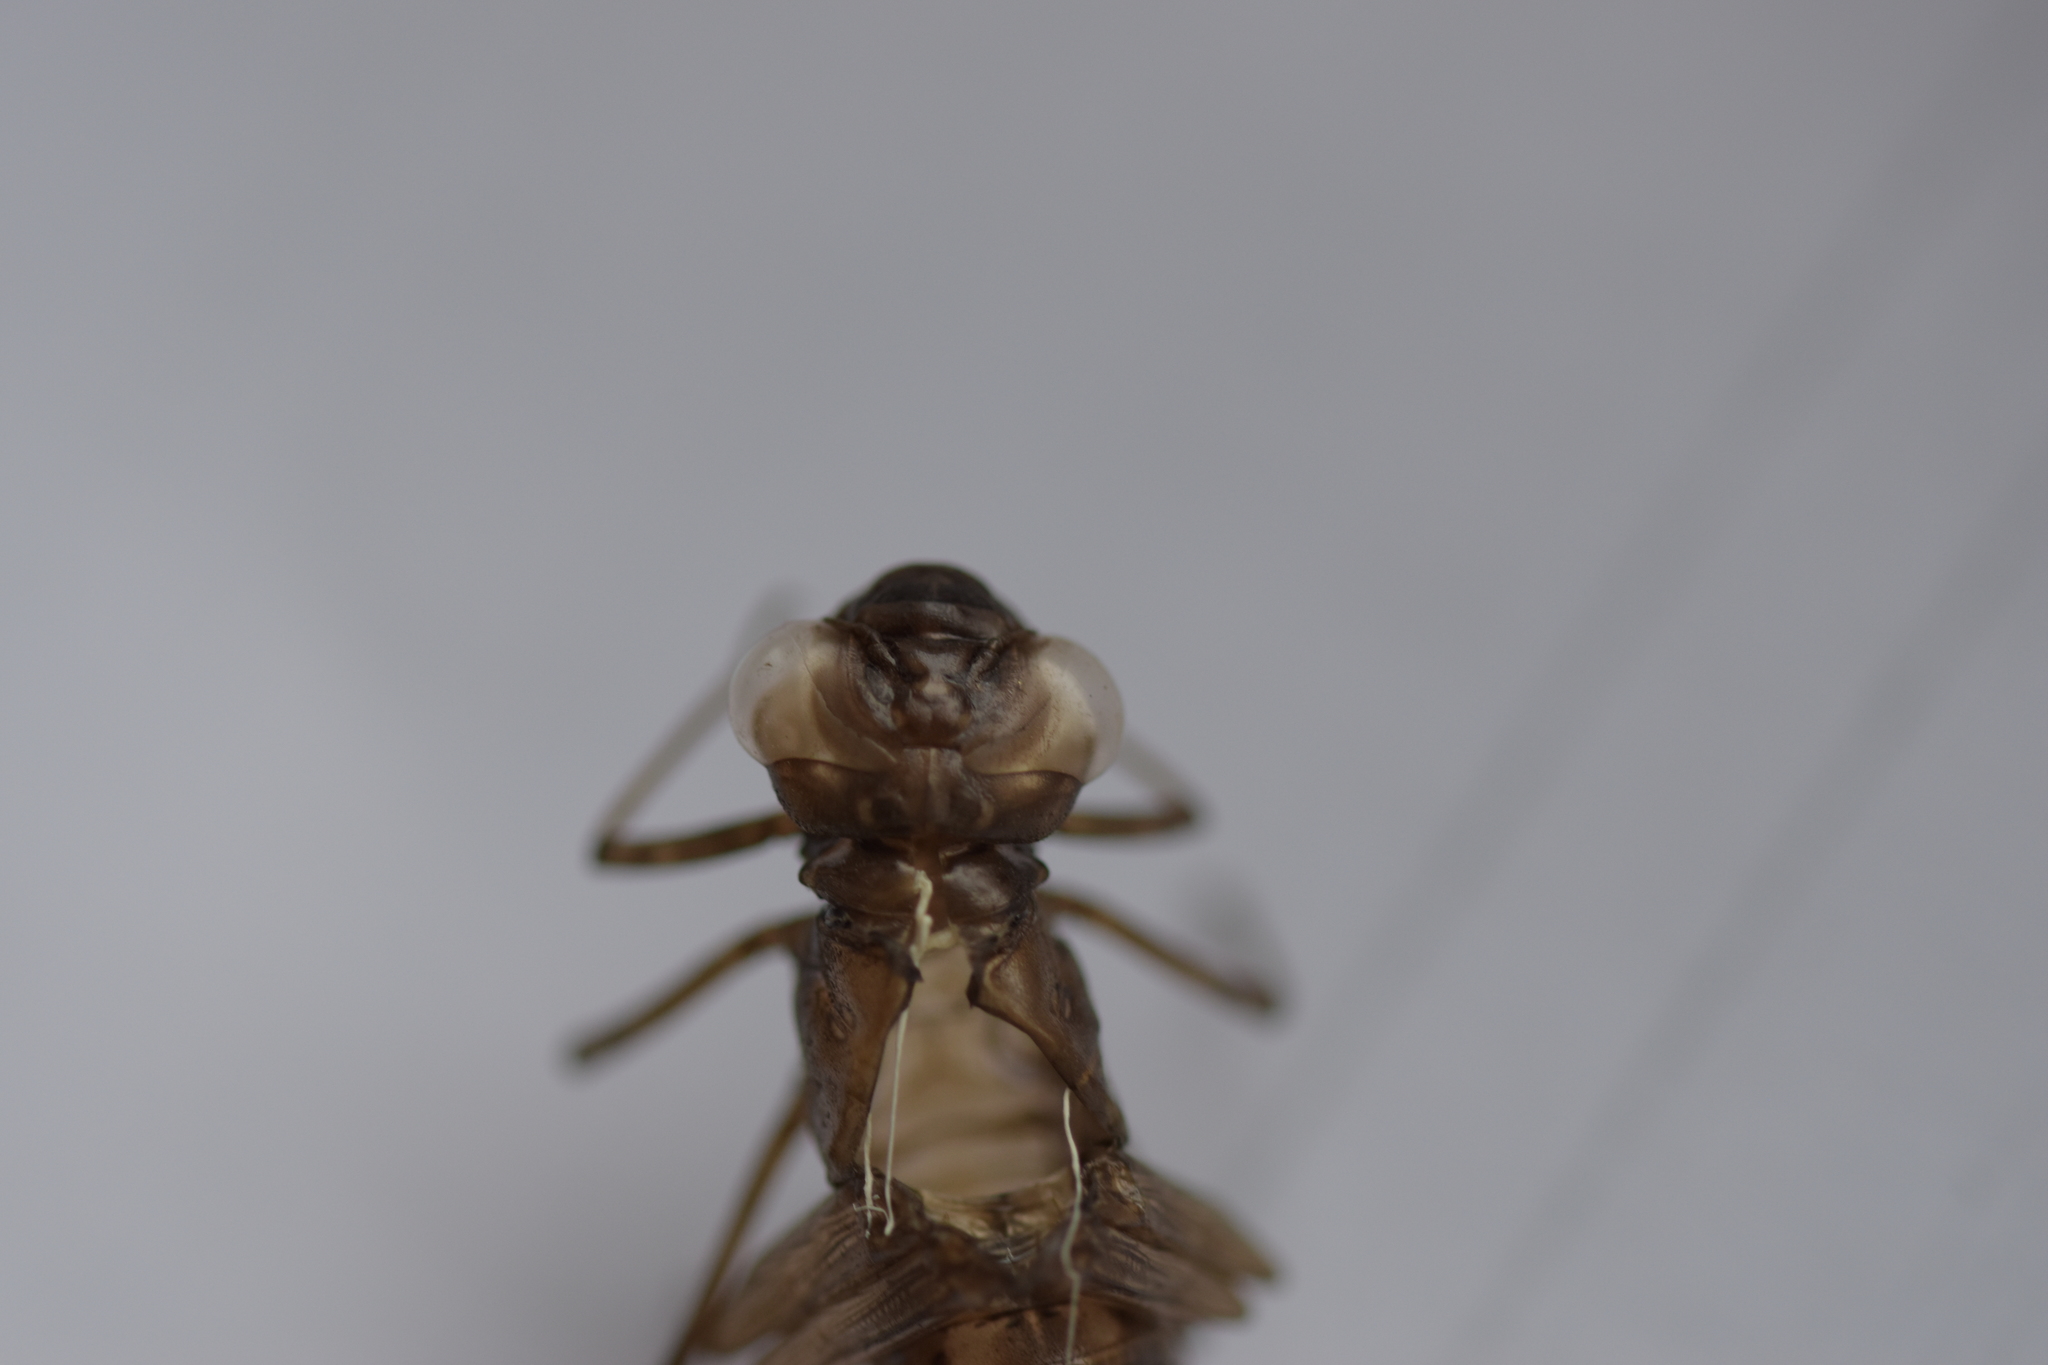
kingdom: Animalia
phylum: Arthropoda
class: Insecta
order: Odonata
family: Aeshnidae
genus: Aeshna
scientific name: Aeshna mixta
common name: Migrant hawker
